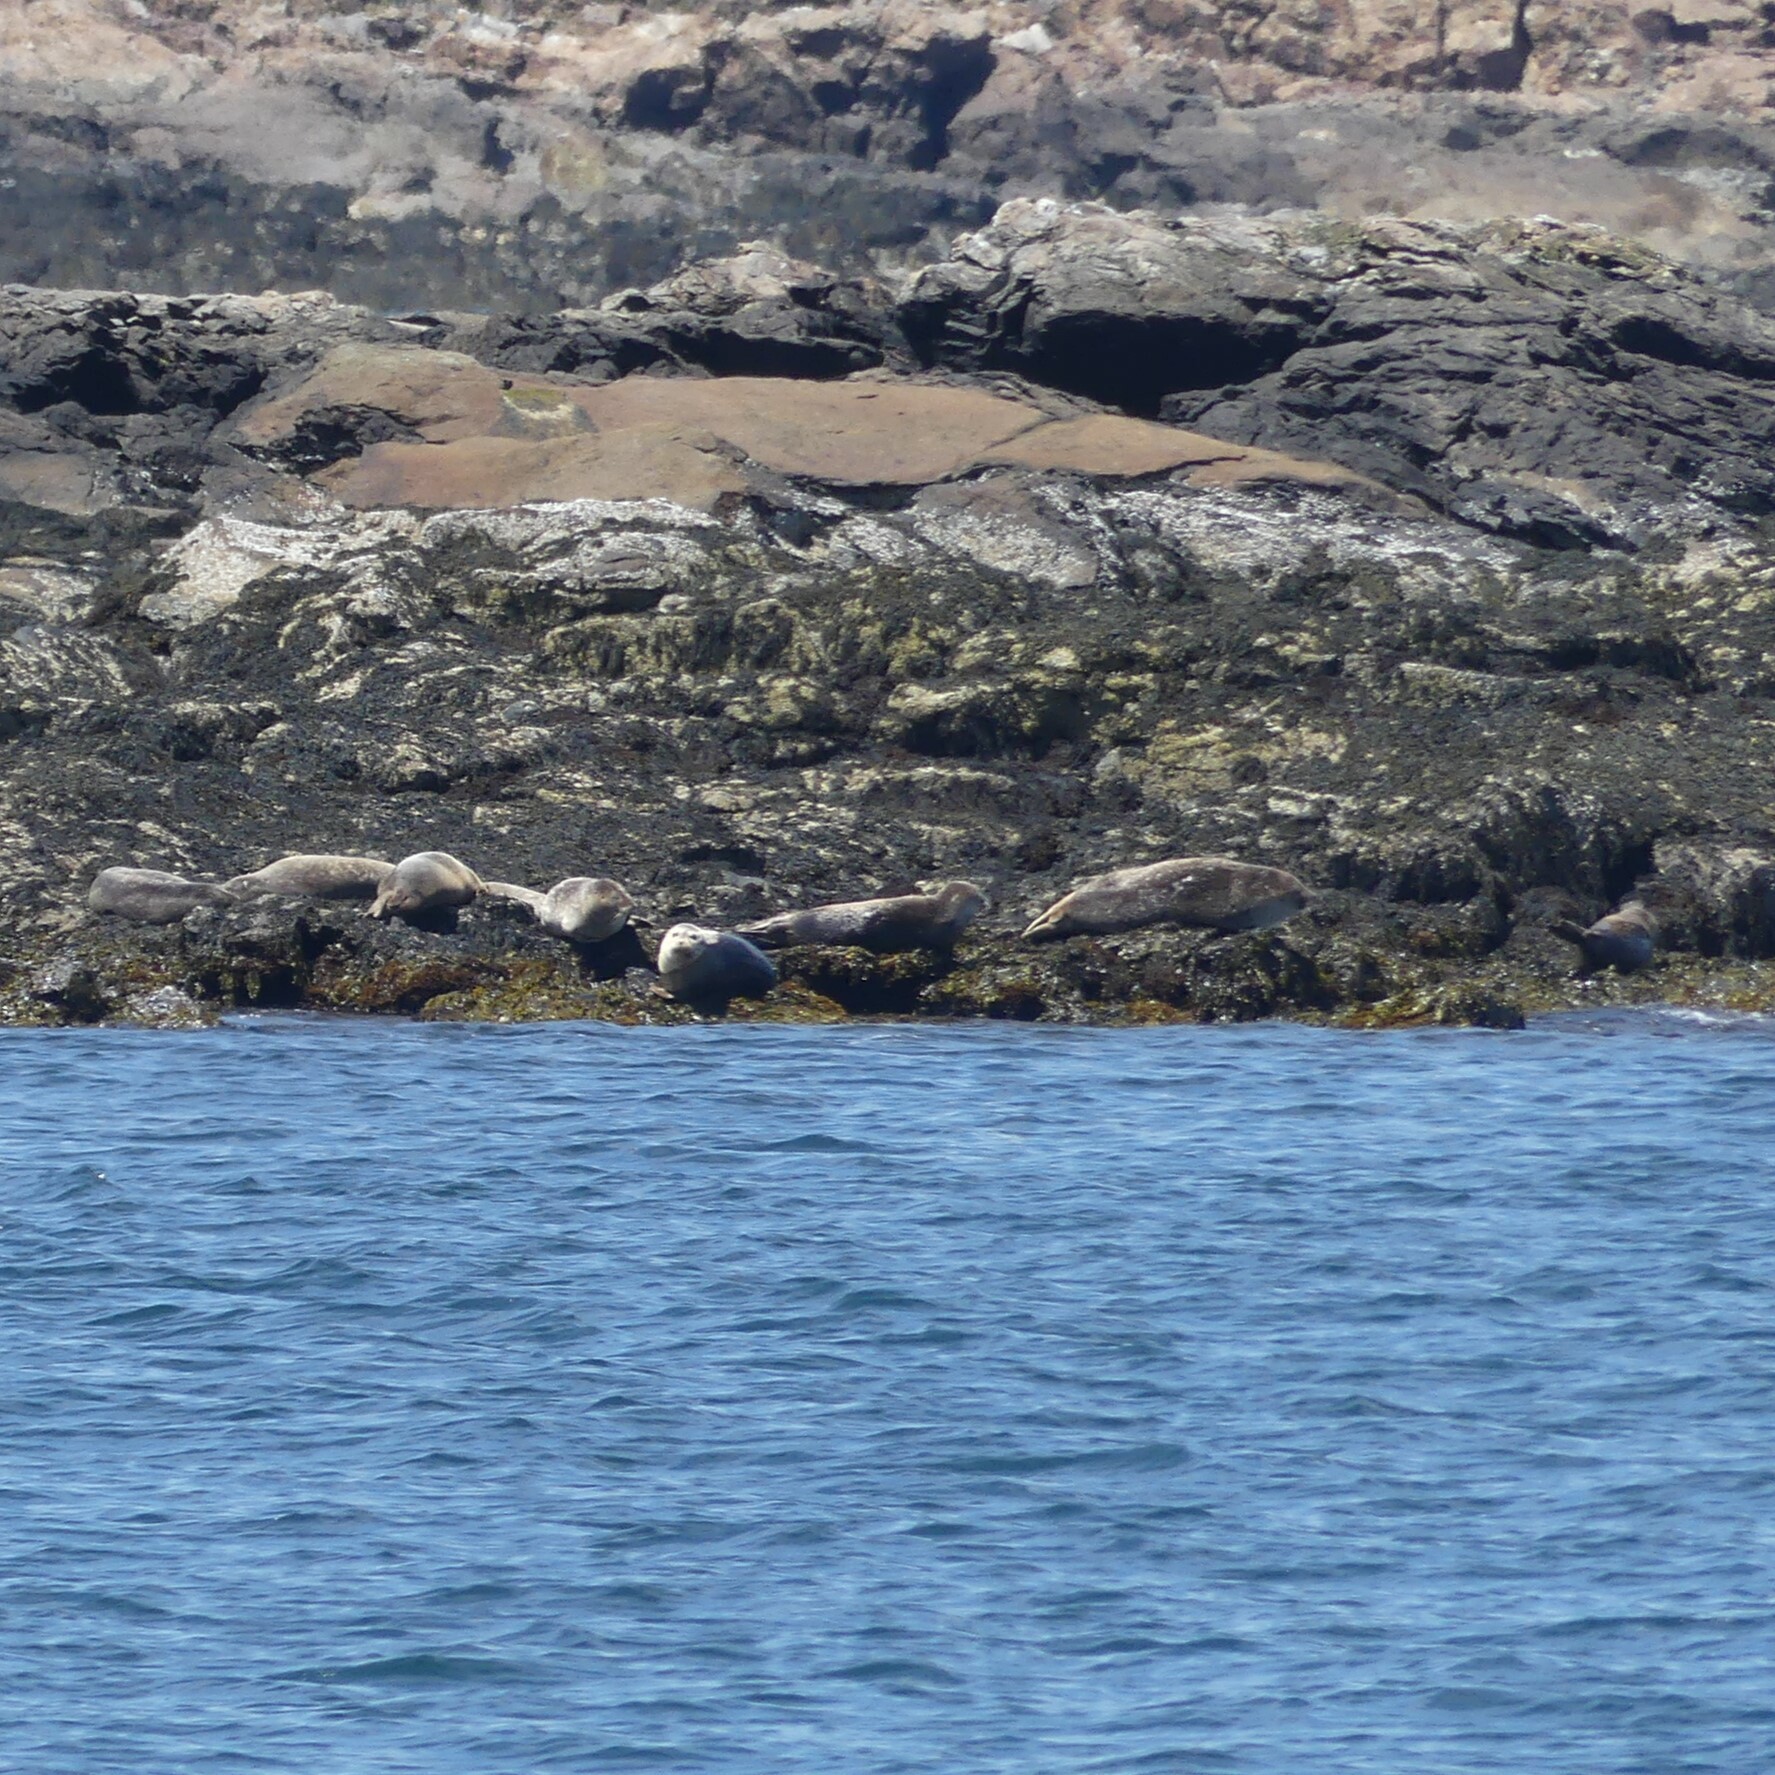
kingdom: Animalia
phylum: Chordata
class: Mammalia
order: Carnivora
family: Phocidae
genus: Phoca
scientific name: Phoca vitulina
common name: Harbor seal
